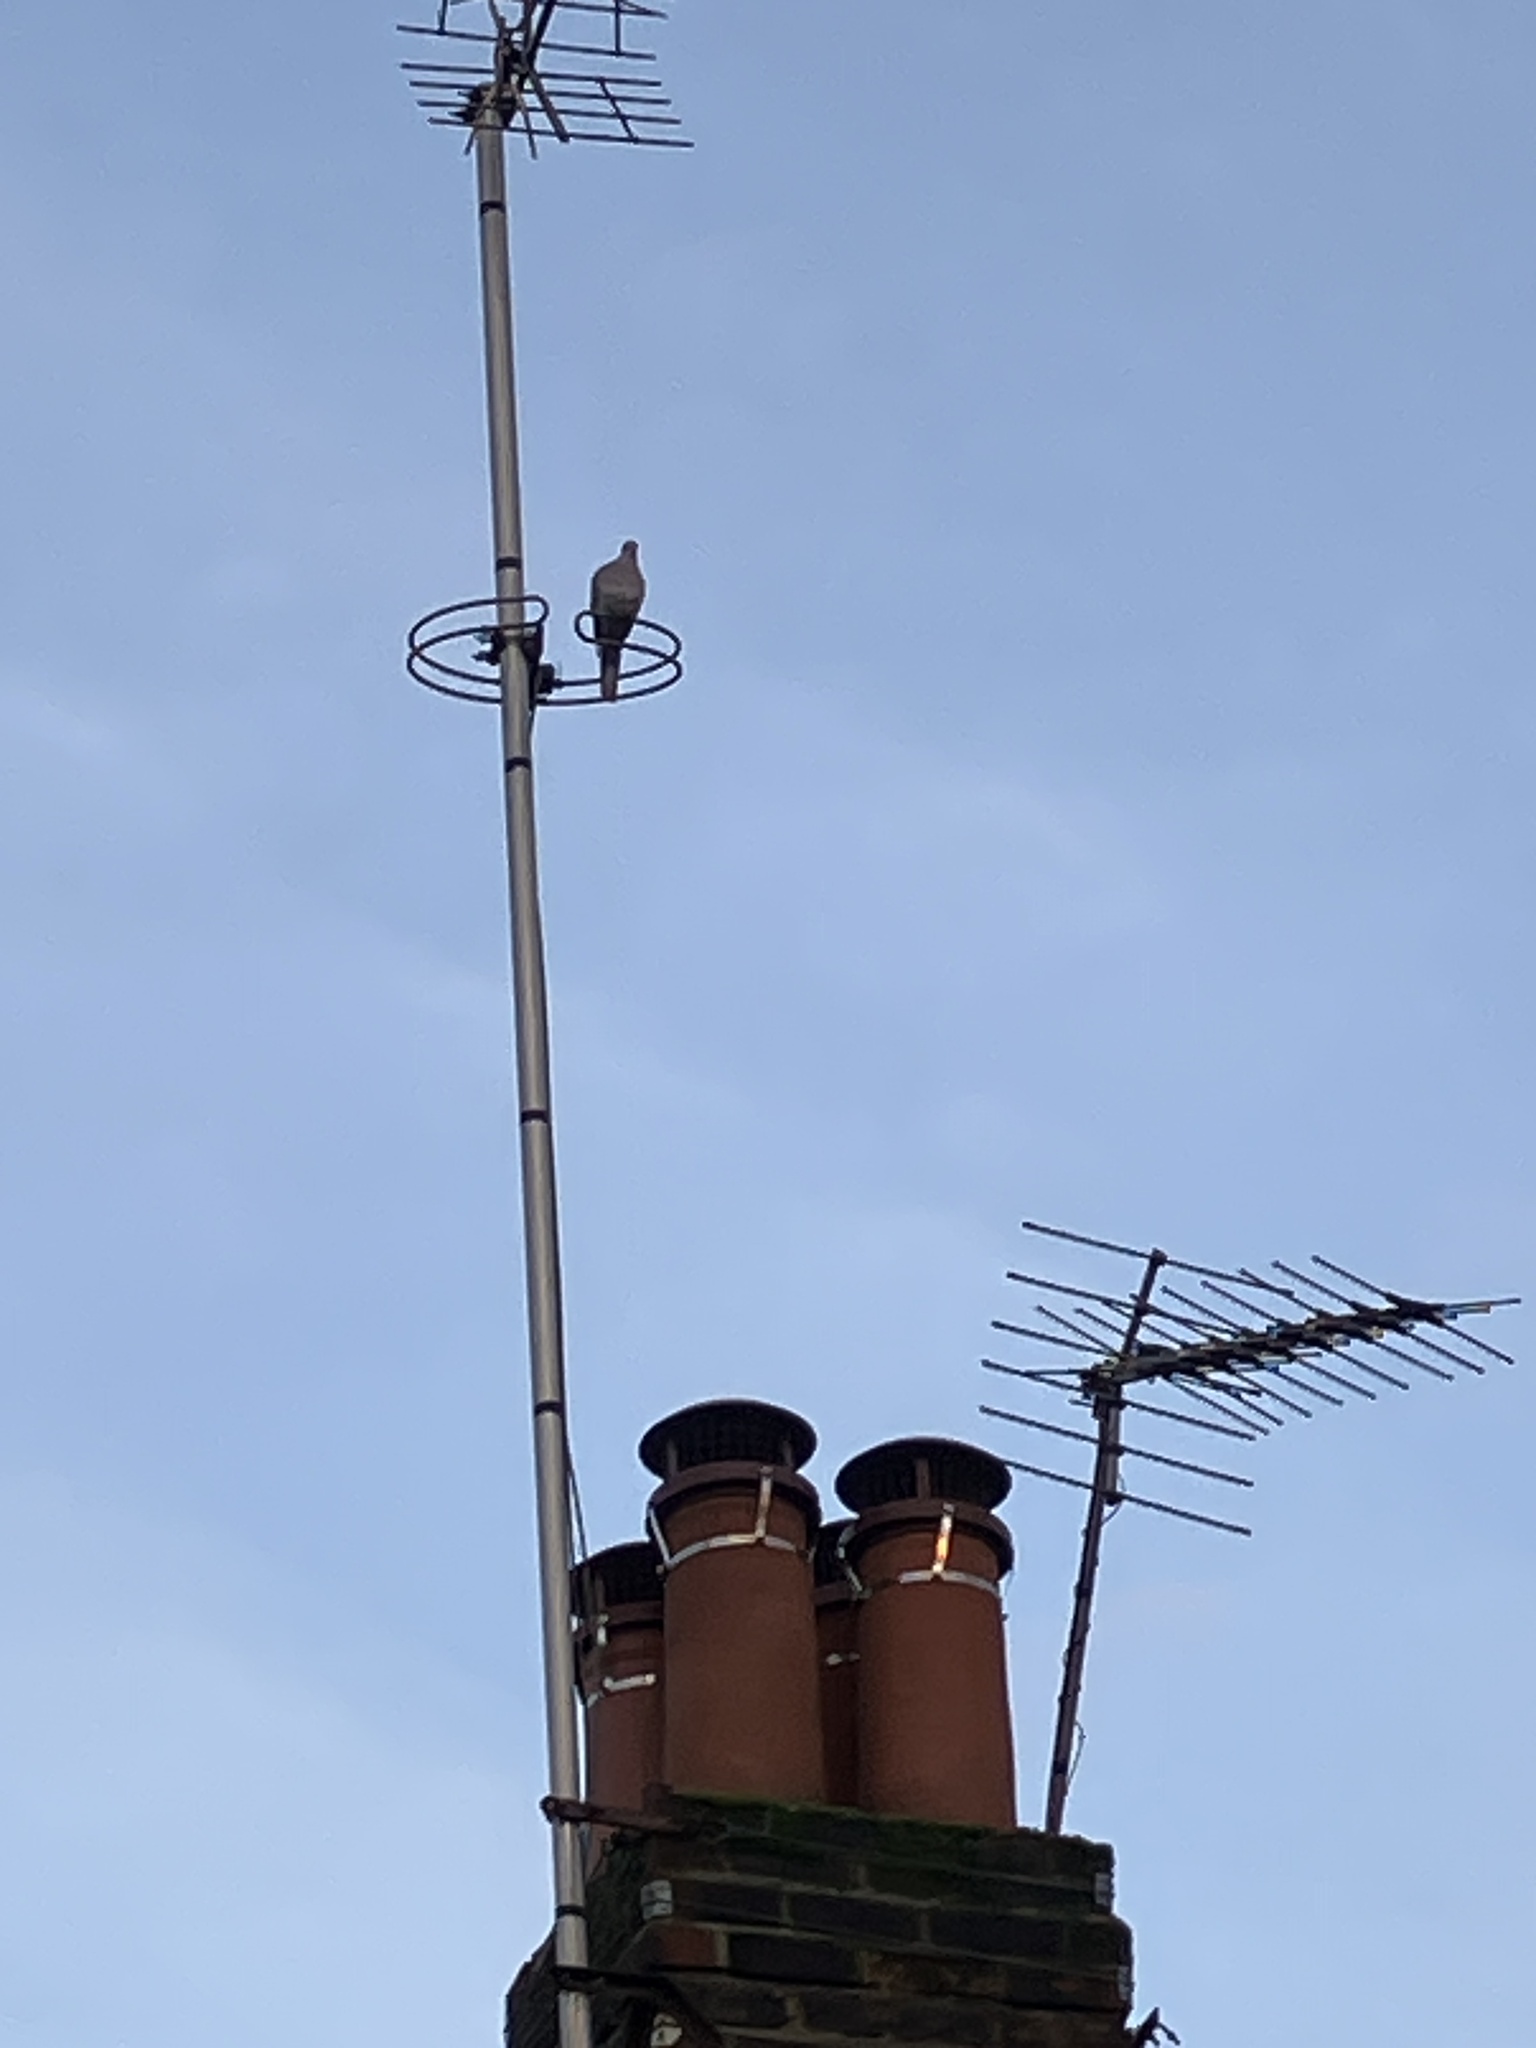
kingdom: Animalia
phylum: Chordata
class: Aves
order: Columbiformes
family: Columbidae
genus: Streptopelia
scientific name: Streptopelia decaocto
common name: Eurasian collared dove
